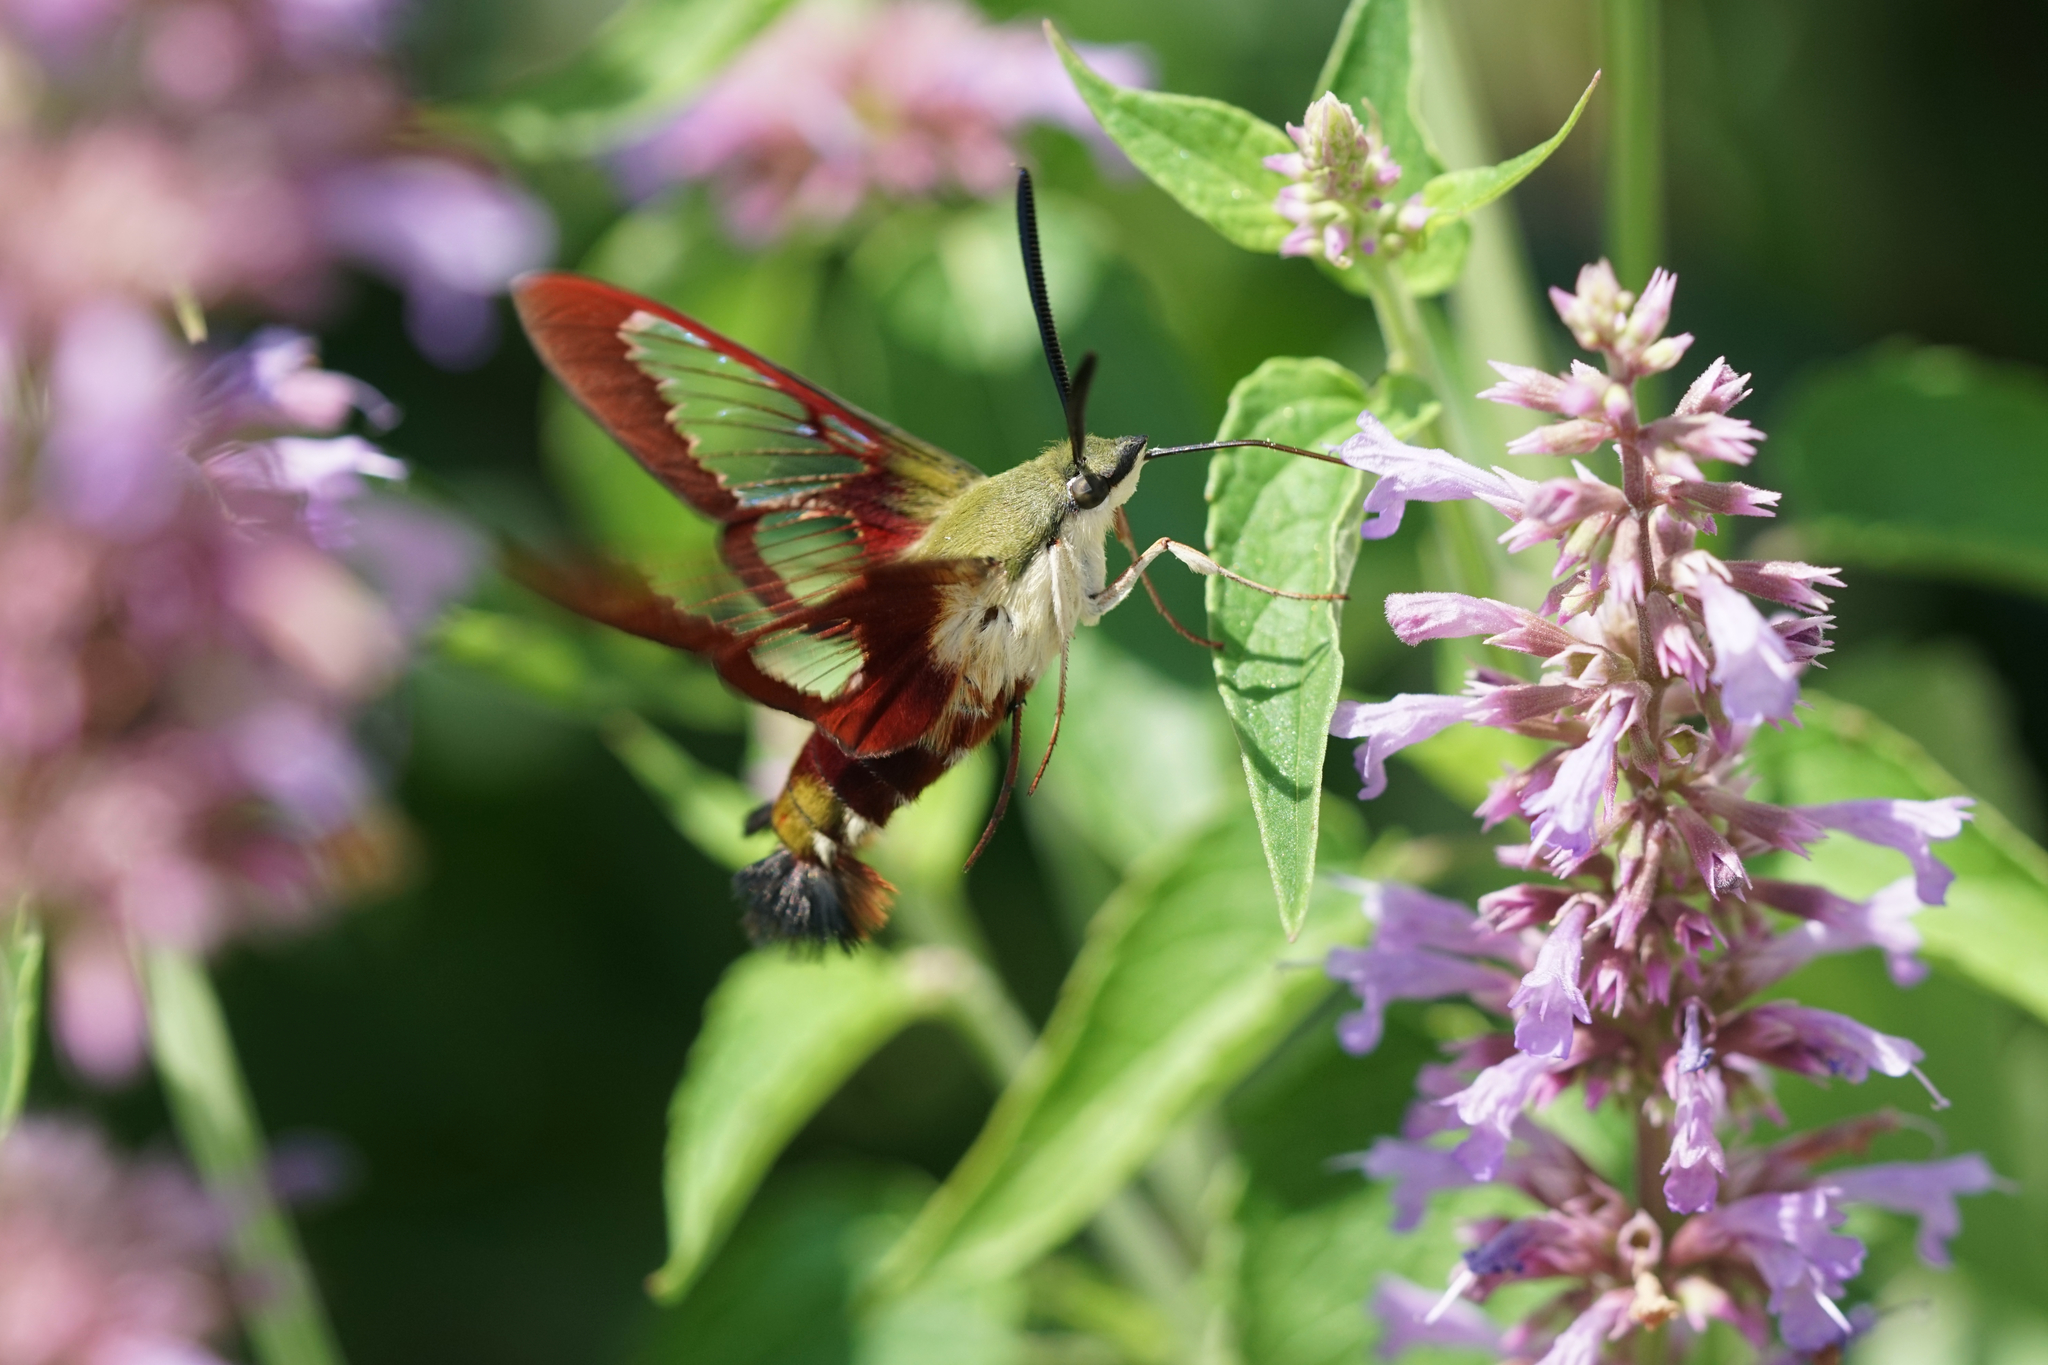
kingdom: Animalia
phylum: Arthropoda
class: Insecta
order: Lepidoptera
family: Sphingidae
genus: Hemaris
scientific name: Hemaris thysbe
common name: Common clear-wing
